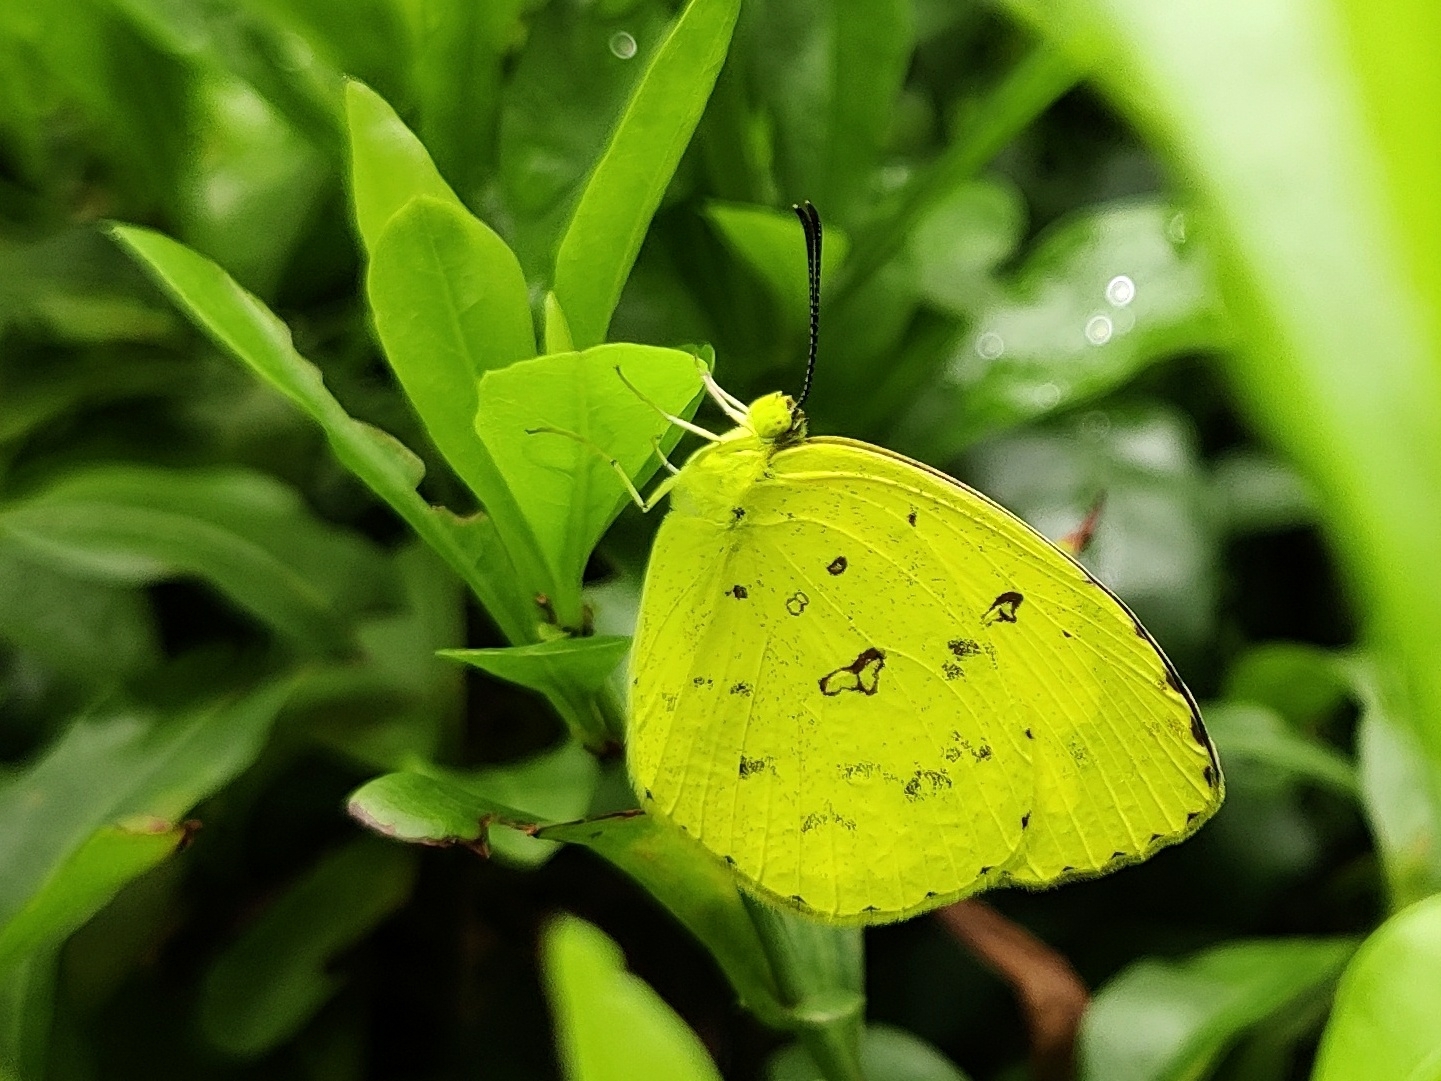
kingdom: Animalia
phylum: Arthropoda
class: Insecta
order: Lepidoptera
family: Pieridae
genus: Eurema
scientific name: Eurema hecabe
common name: Pale grass yellow
